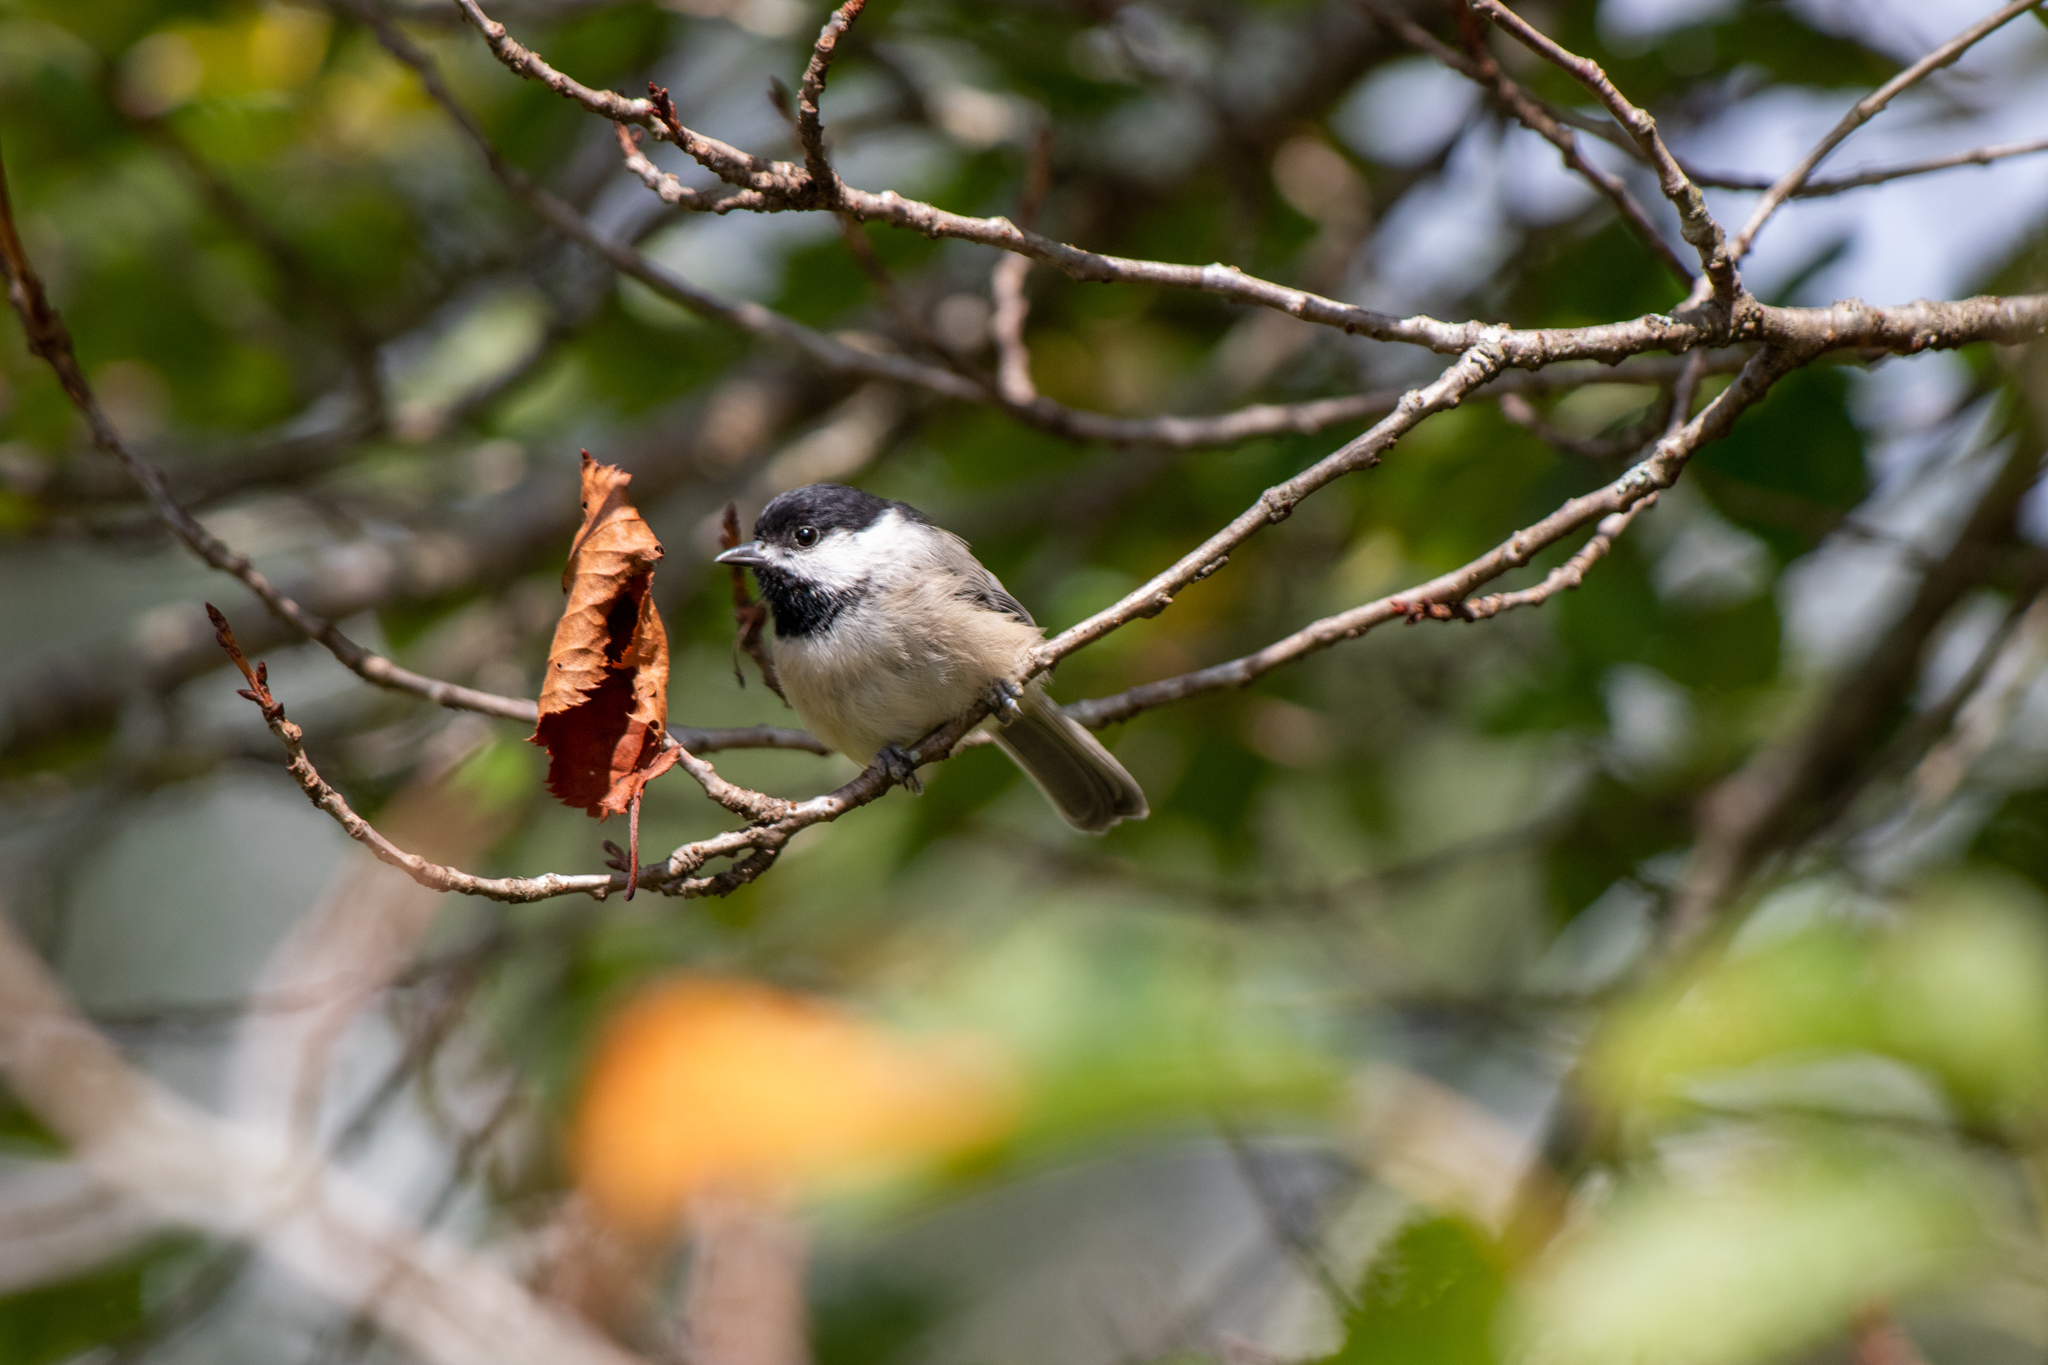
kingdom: Animalia
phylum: Chordata
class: Aves
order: Passeriformes
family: Paridae
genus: Poecile
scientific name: Poecile carolinensis
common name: Carolina chickadee
